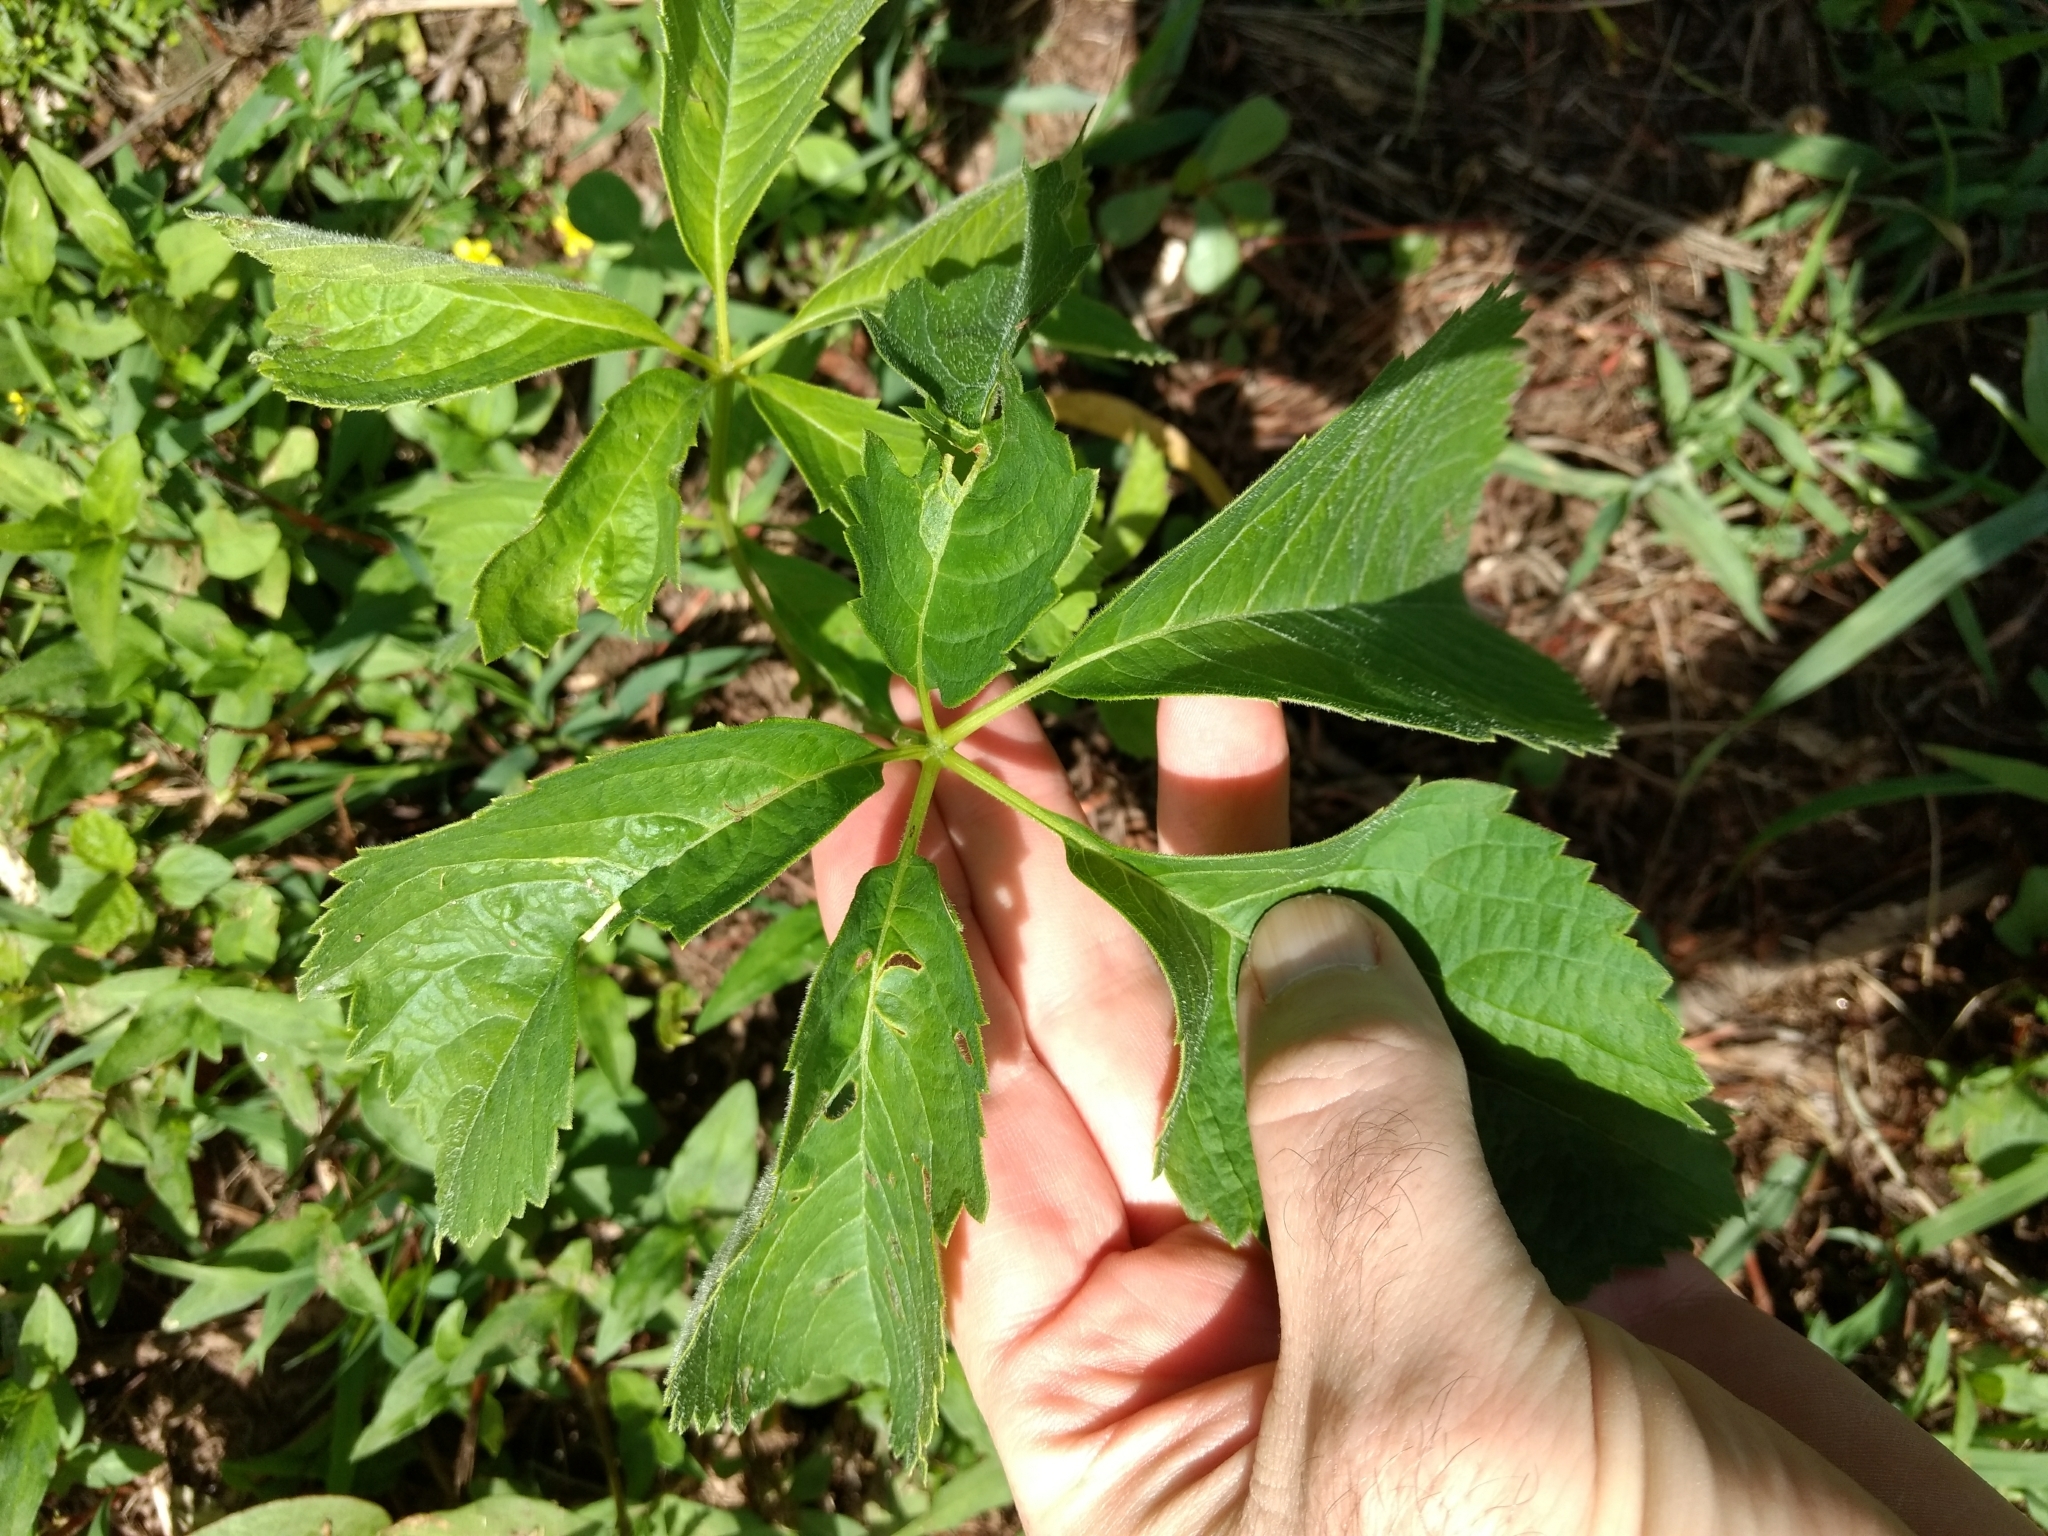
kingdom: Plantae
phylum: Tracheophyta
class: Magnoliopsida
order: Vitales
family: Vitaceae
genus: Parthenocissus
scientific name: Parthenocissus inserta
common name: False virginia-creeper
